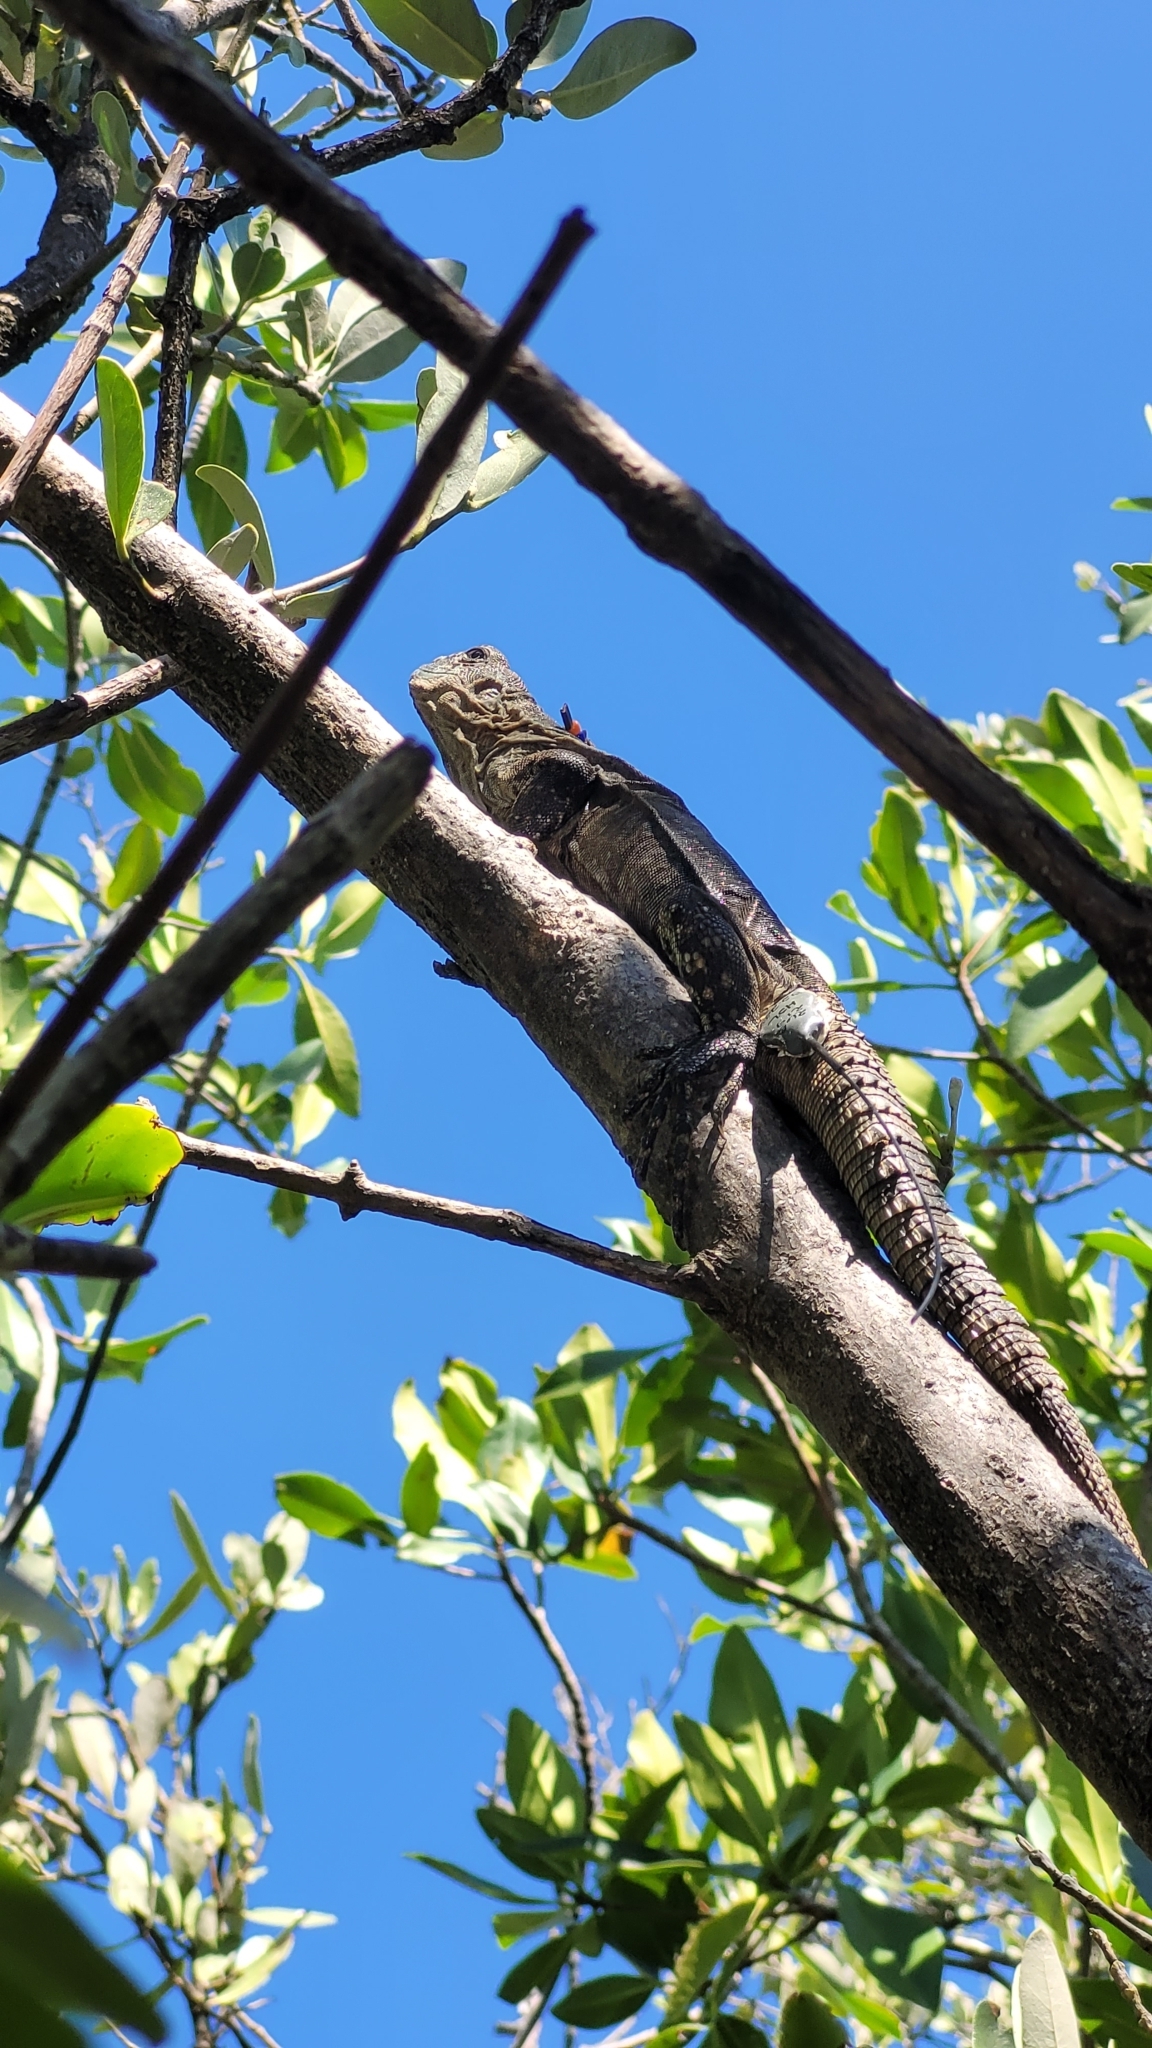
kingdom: Animalia
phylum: Chordata
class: Squamata
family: Iguanidae
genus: Ctenosaura
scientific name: Ctenosaura bakeri
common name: Utila spiny-tailed iguana
